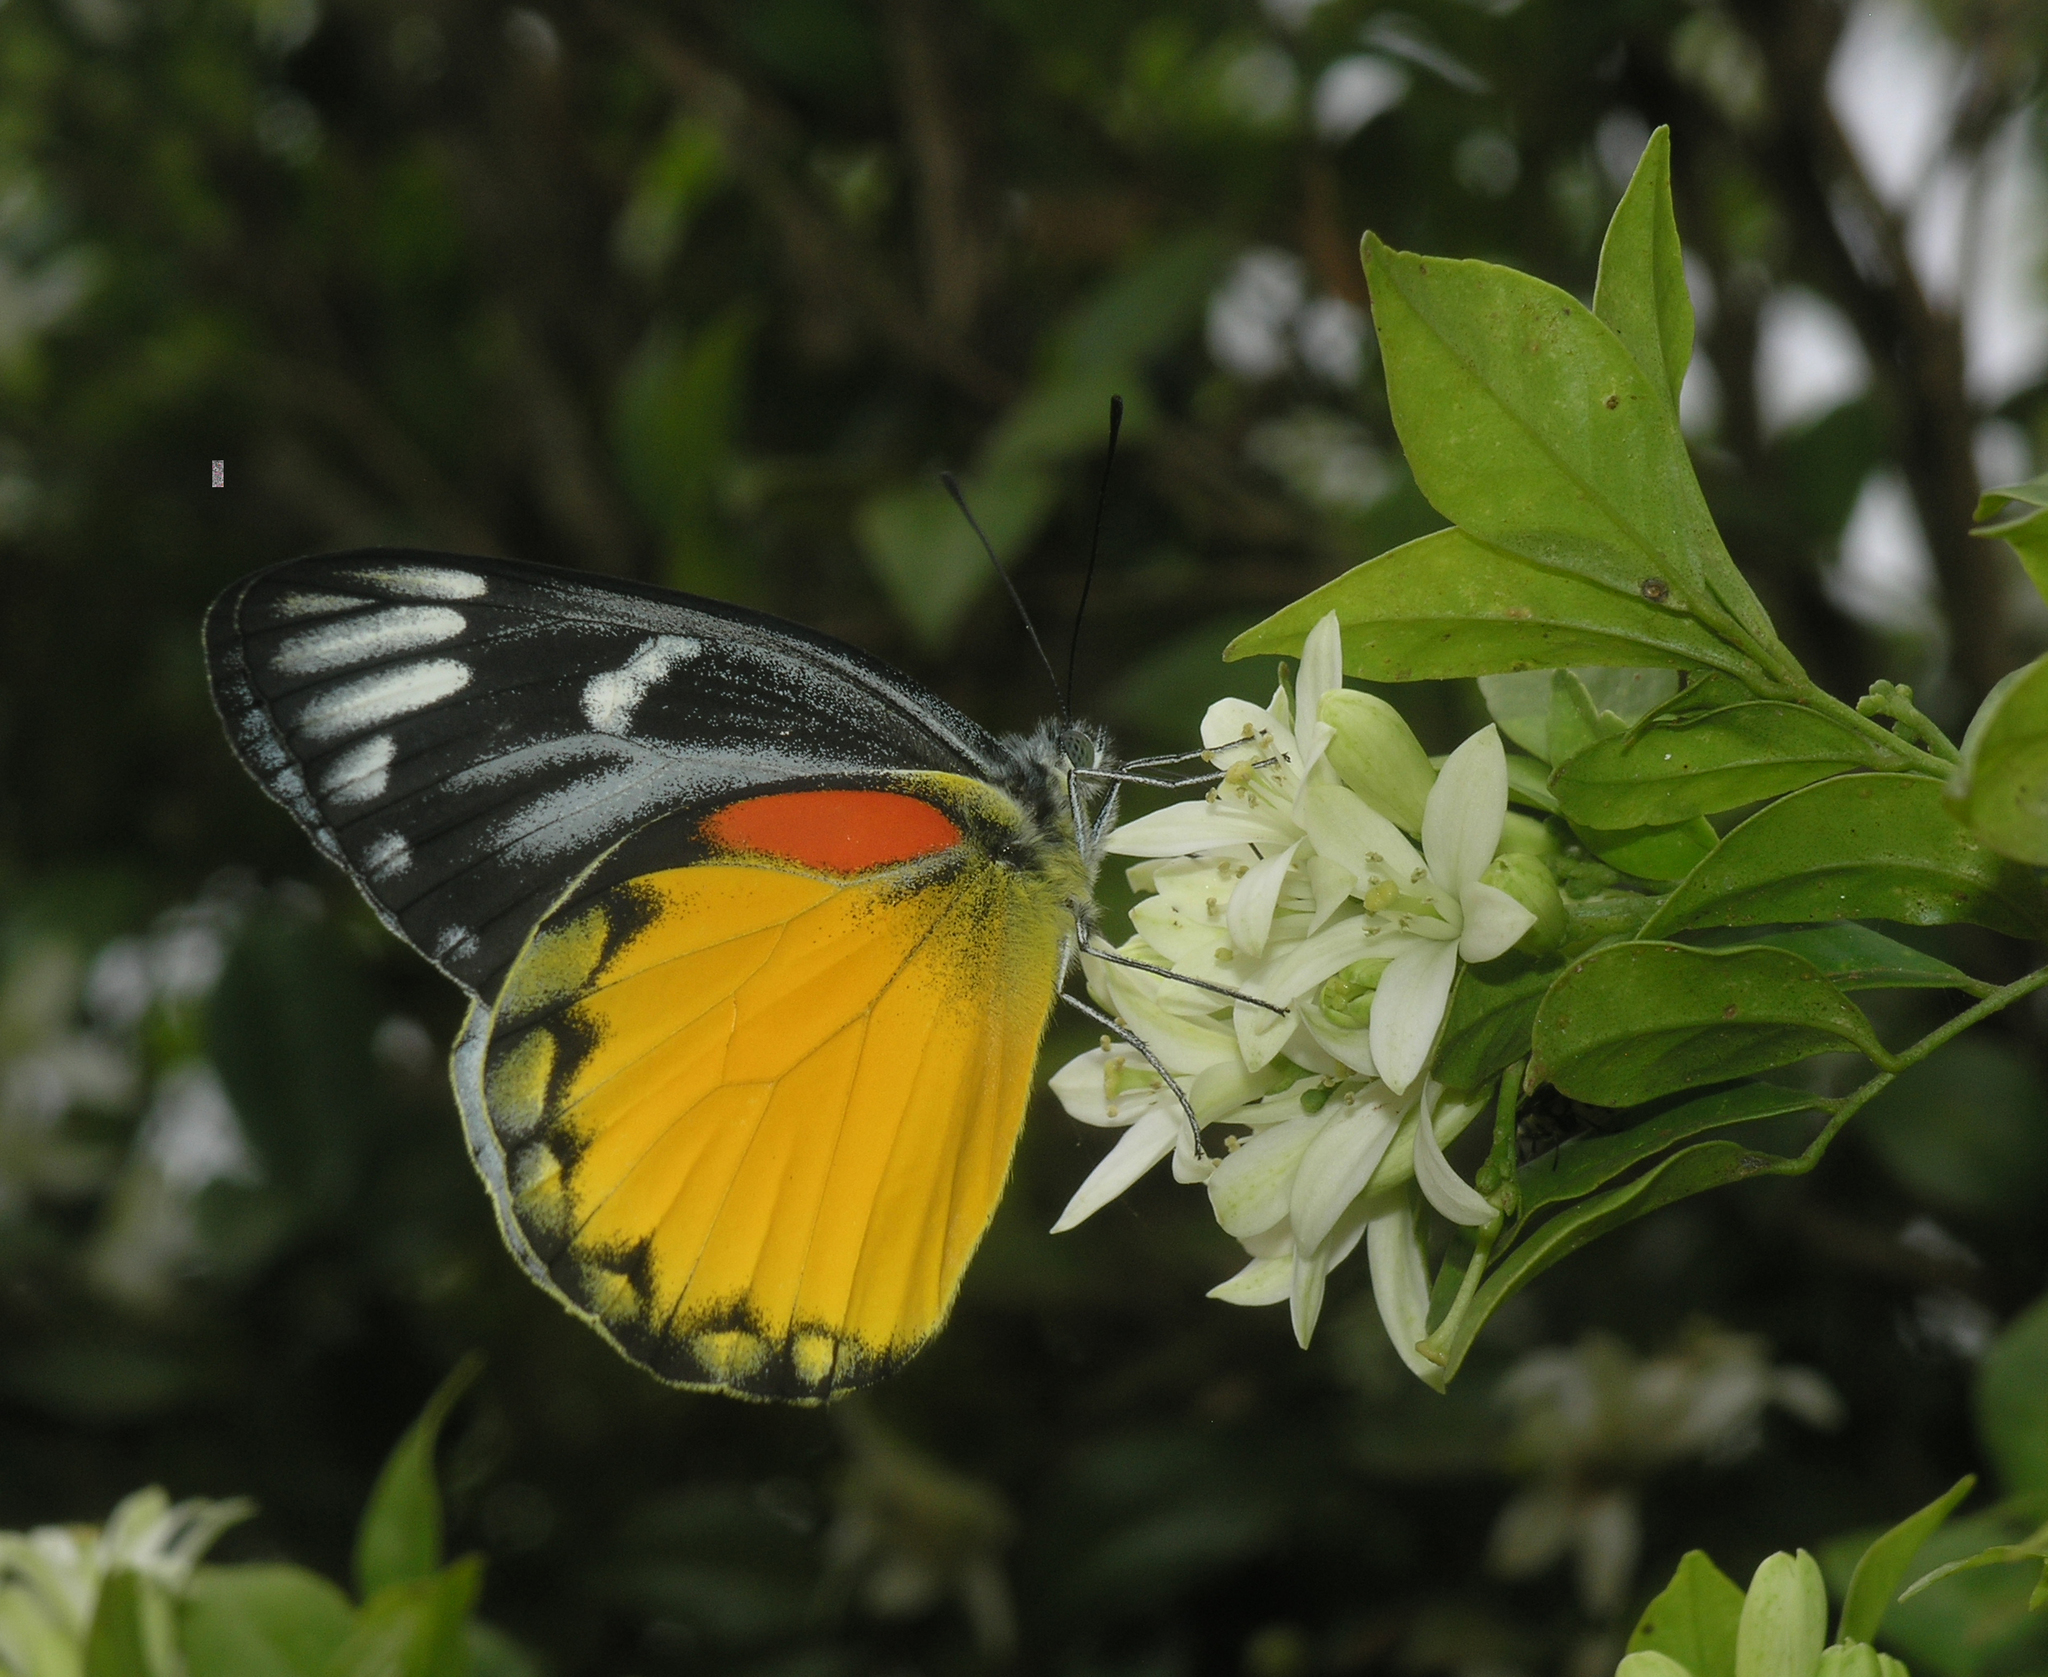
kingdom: Animalia
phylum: Arthropoda
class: Insecta
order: Lepidoptera
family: Pieridae
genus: Delias
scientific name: Delias descombesi
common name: Red-spot jezebel
